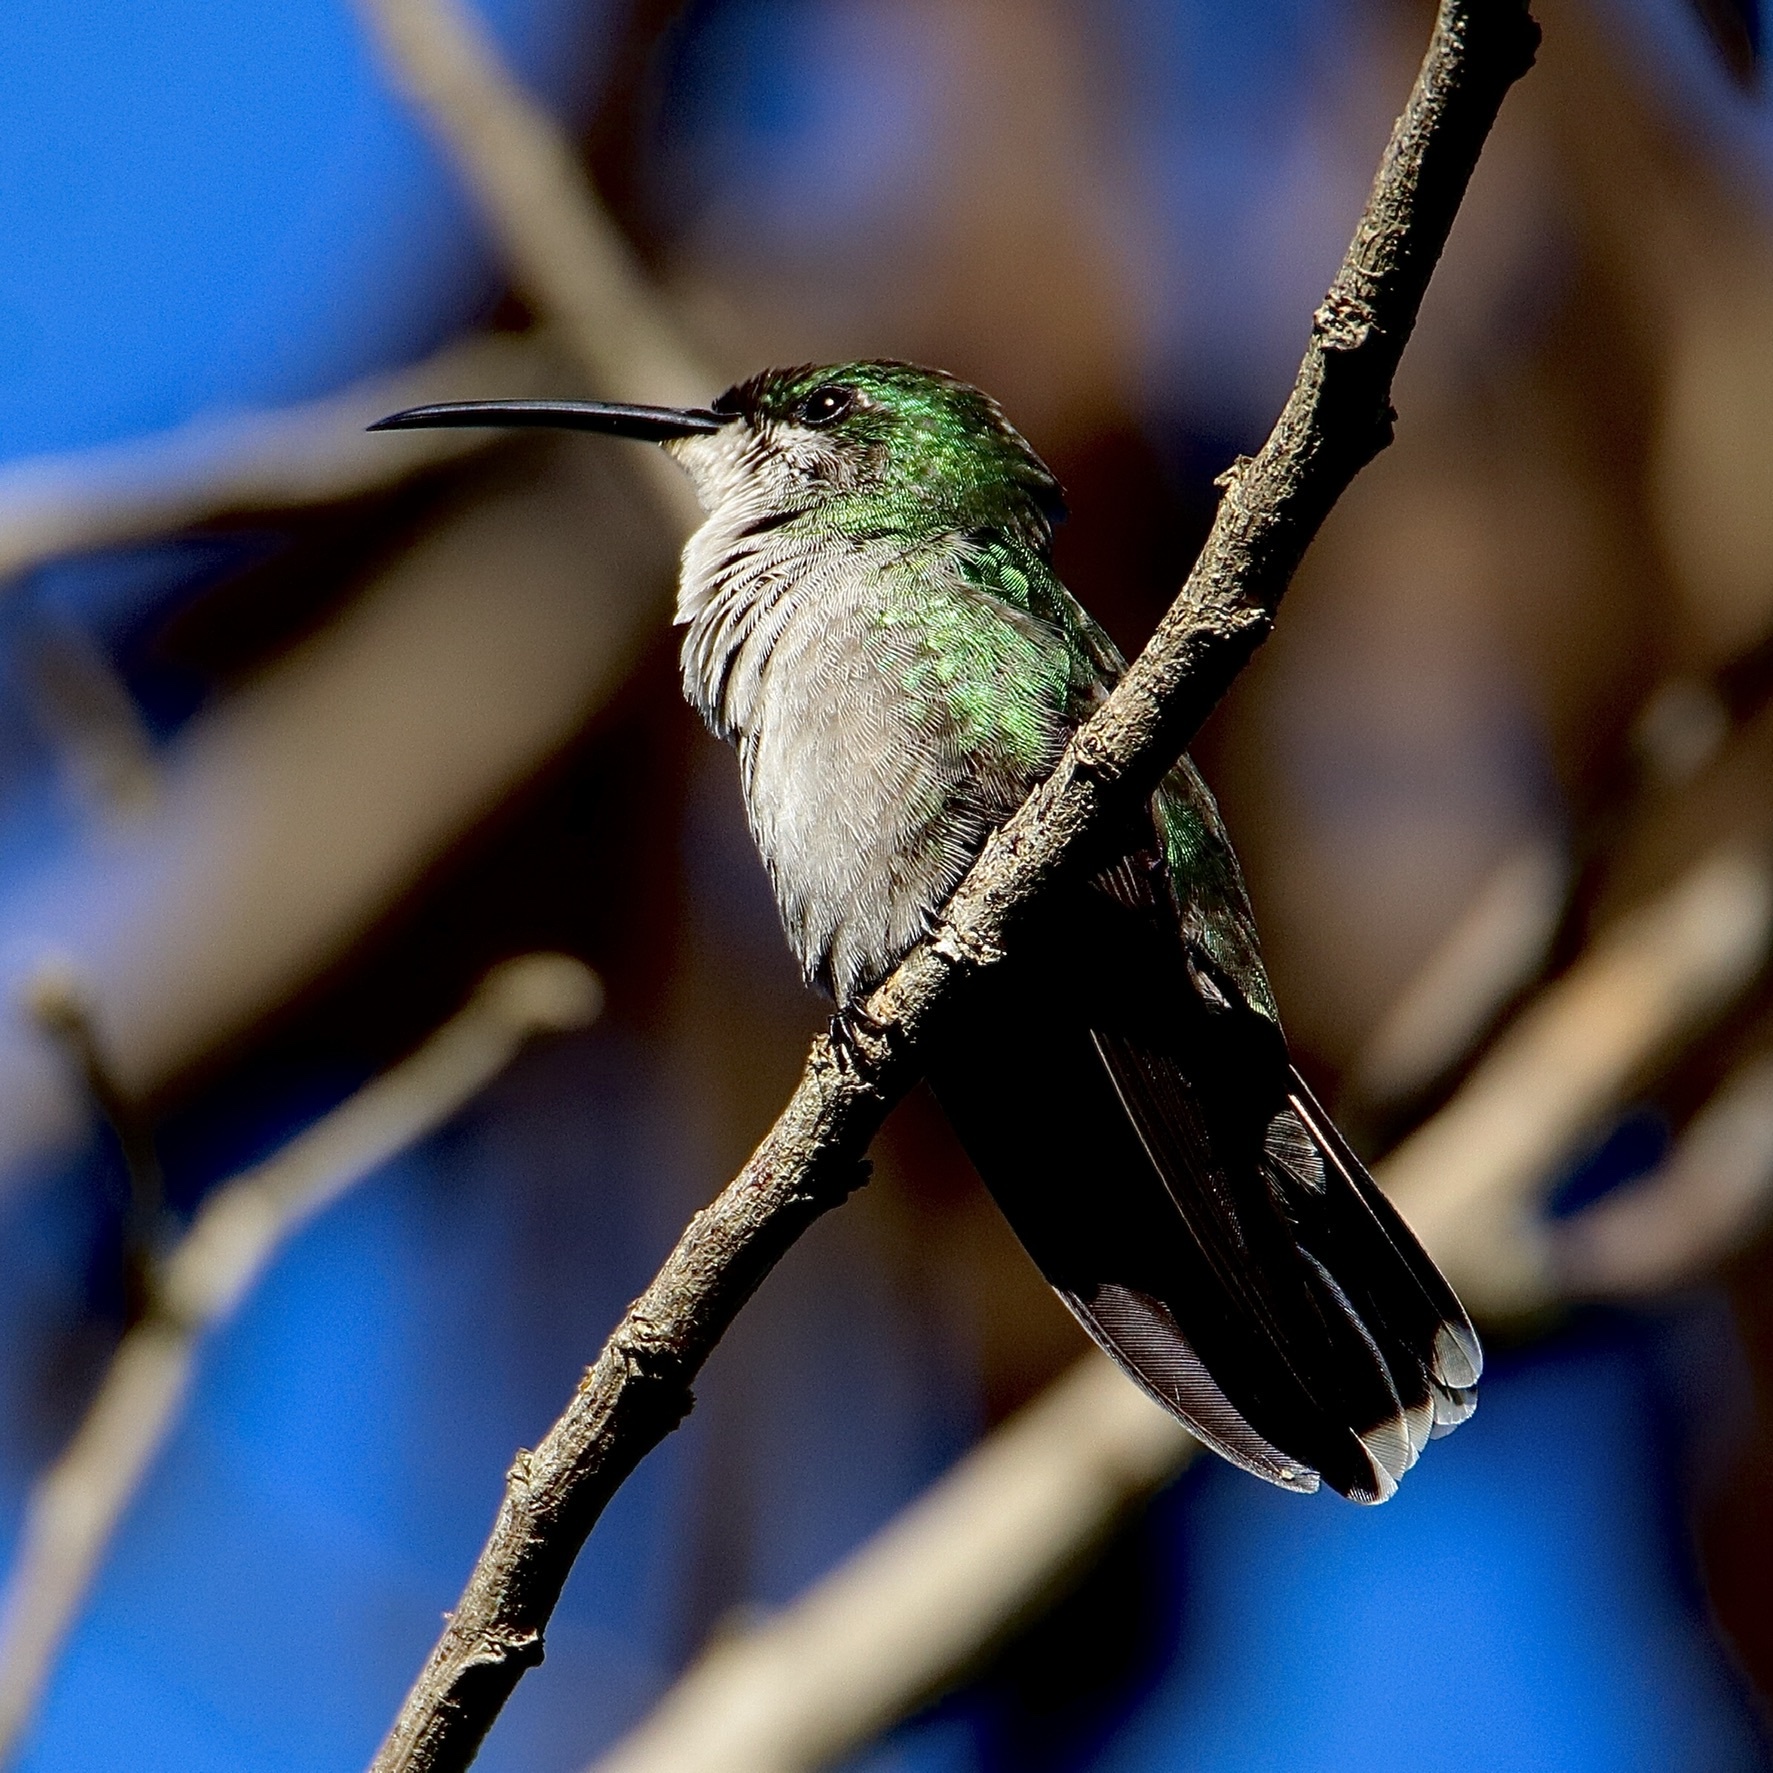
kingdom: Animalia
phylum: Chordata
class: Aves
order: Apodiformes
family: Trochilidae
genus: Anthracothorax
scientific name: Anthracothorax dominicus
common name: Antillean mango
